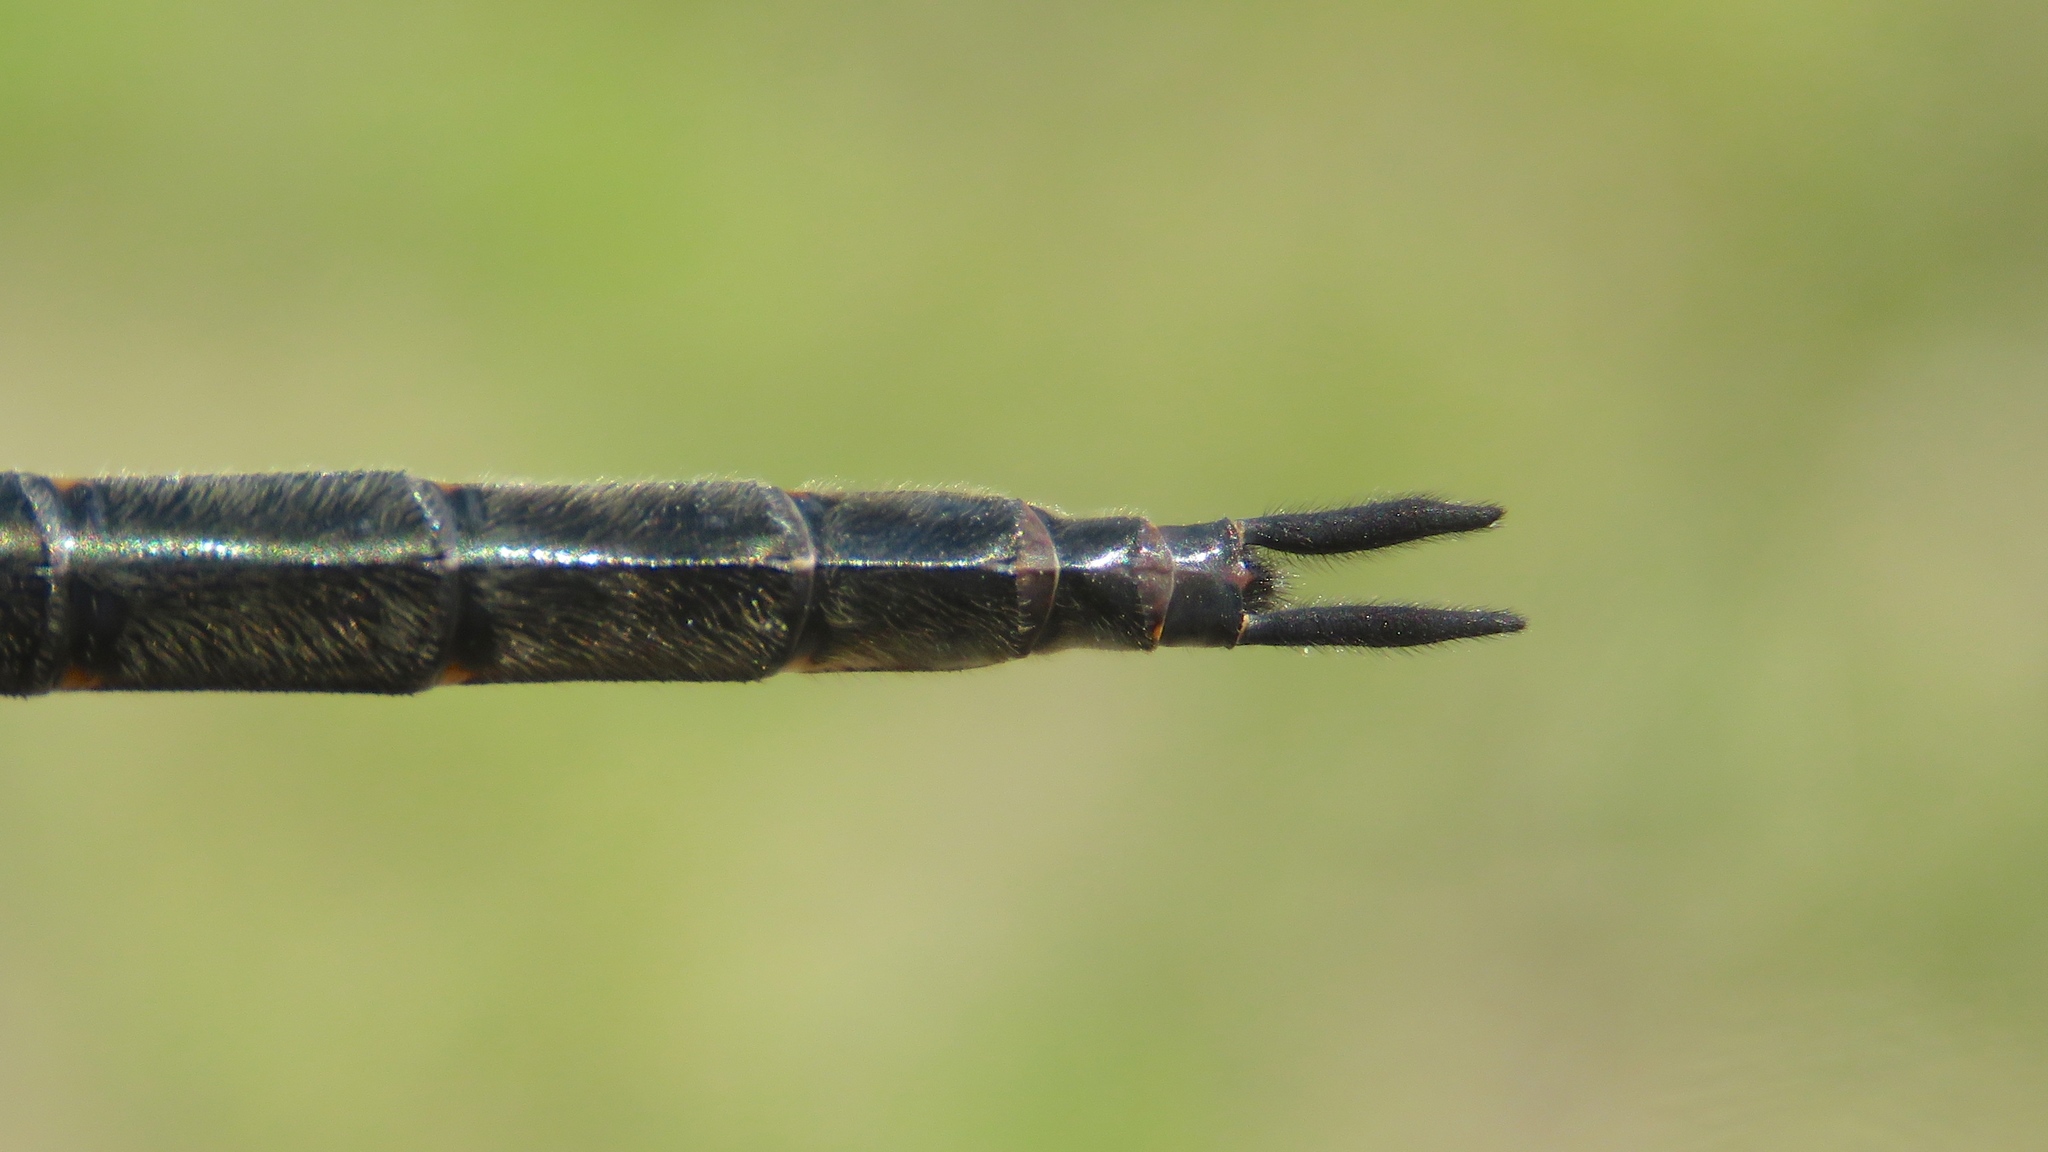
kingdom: Animalia
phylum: Arthropoda
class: Insecta
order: Odonata
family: Corduliidae
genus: Somatochlora
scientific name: Somatochlora tenebrosa
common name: Clamp-tipped emerald
